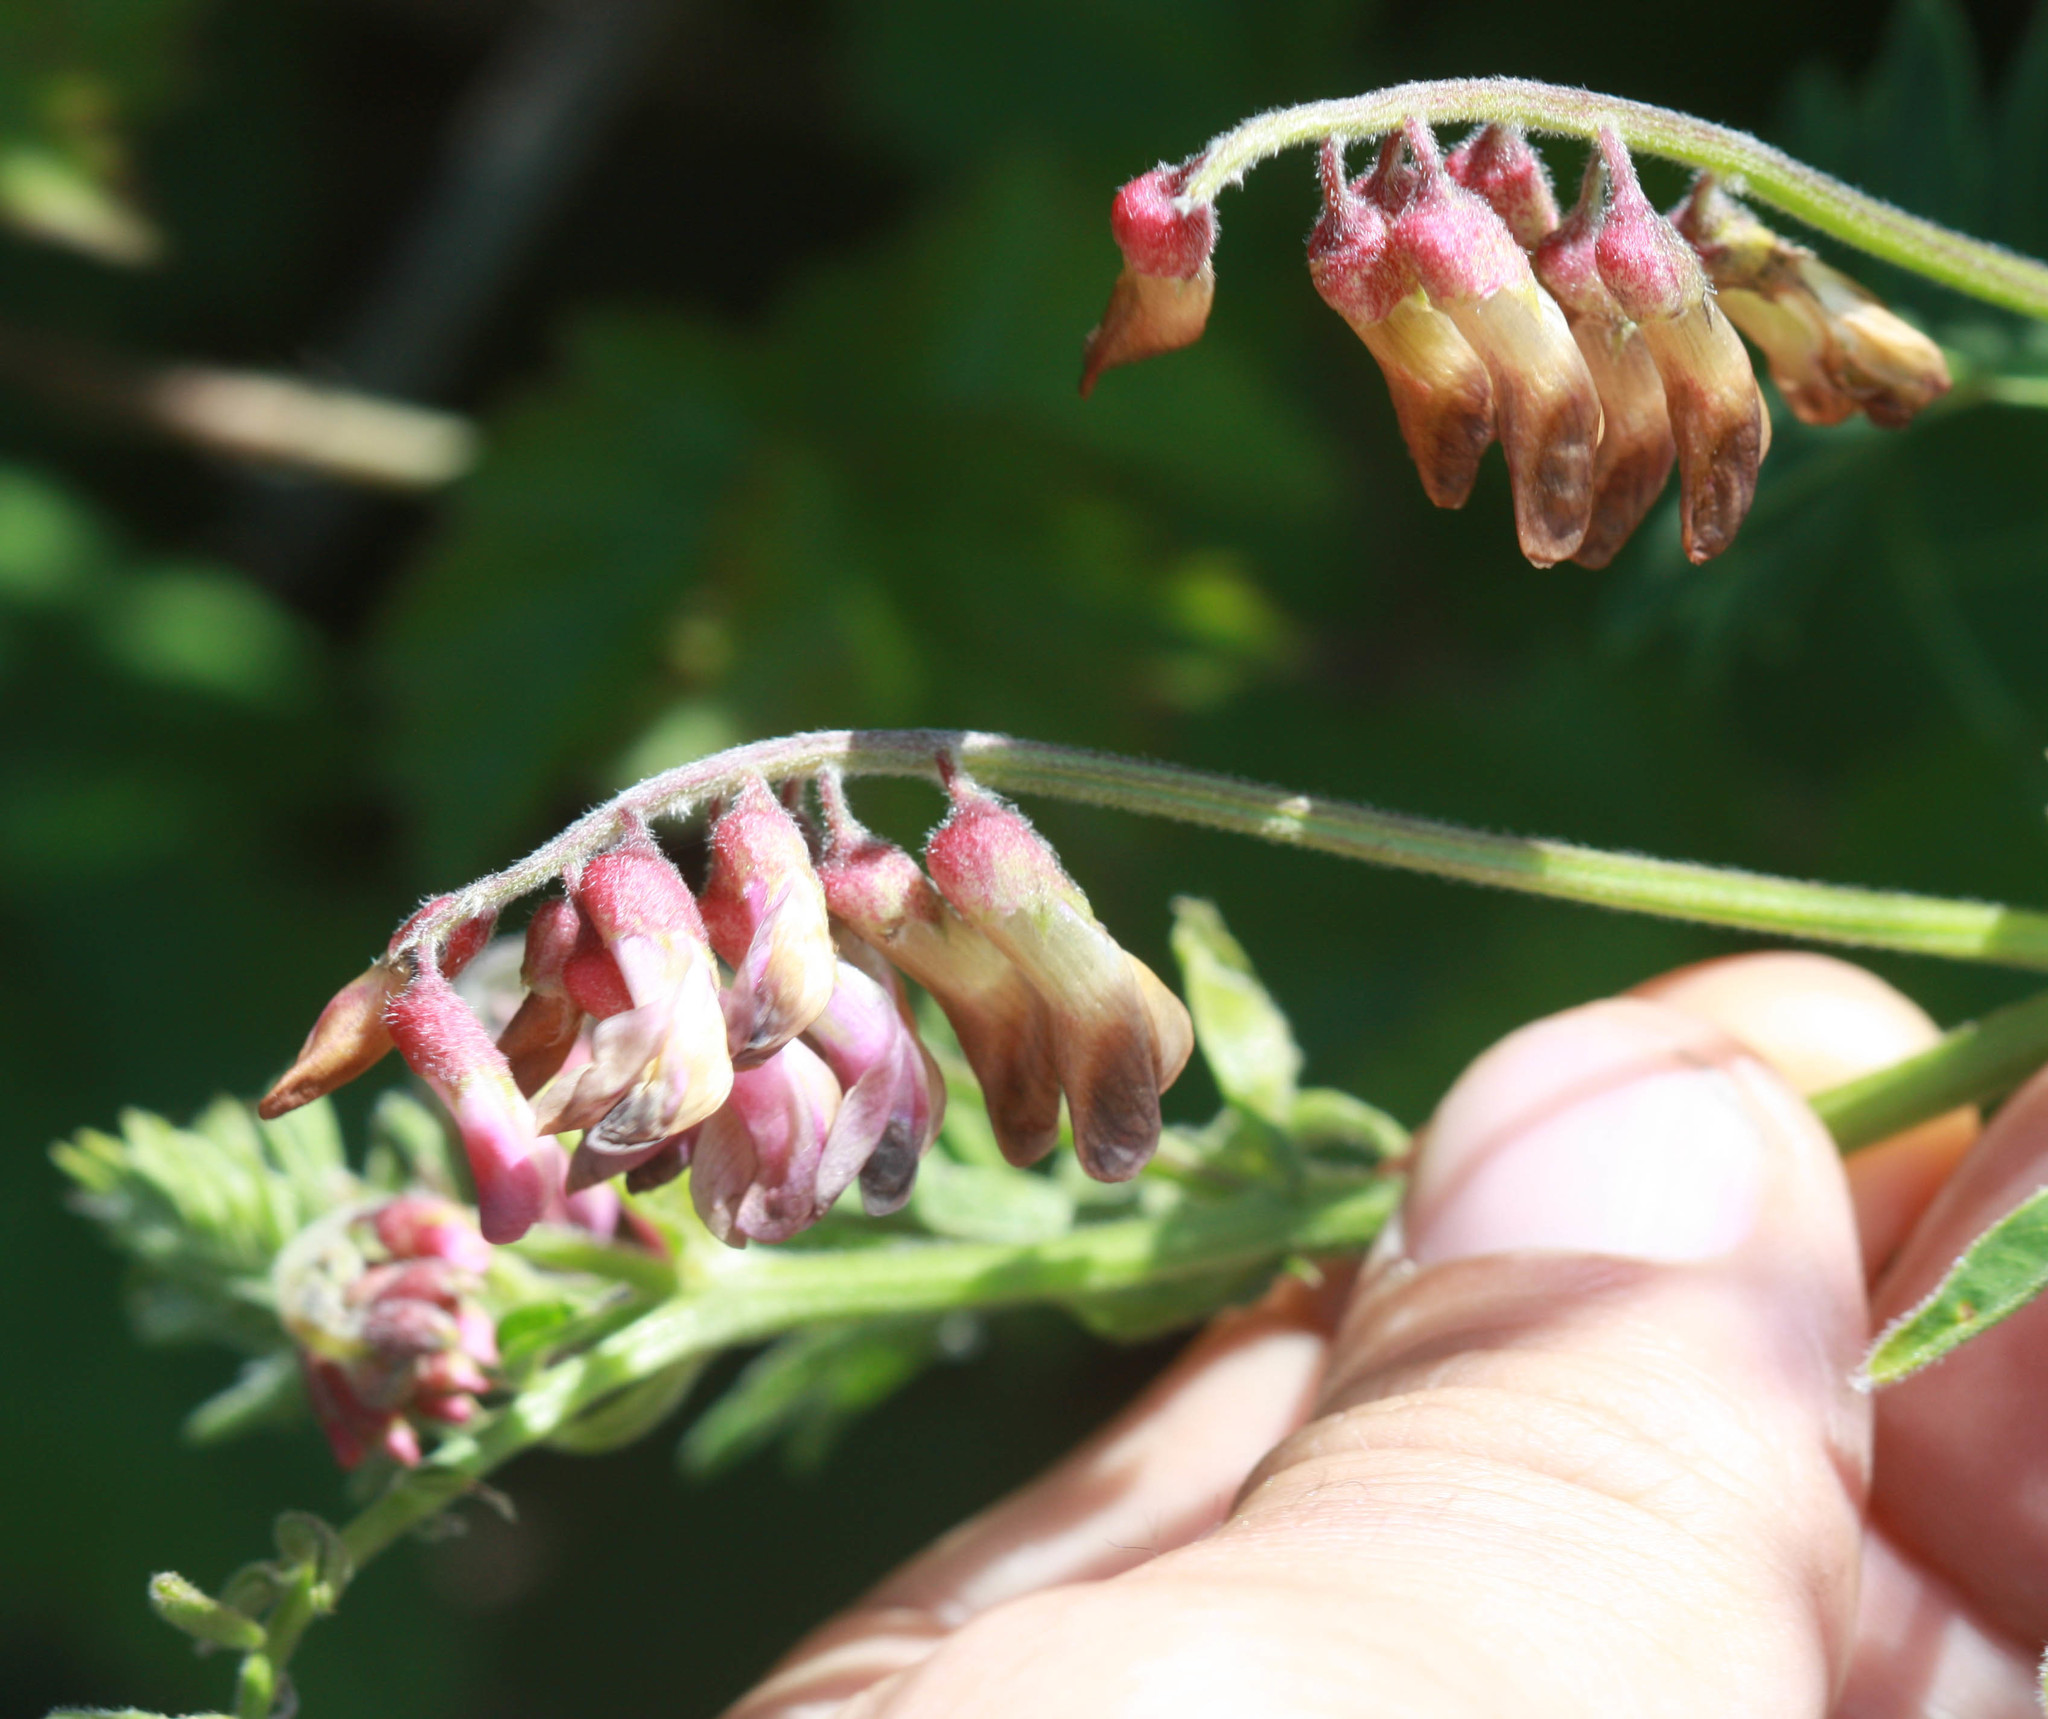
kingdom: Plantae
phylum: Tracheophyta
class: Magnoliopsida
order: Fabales
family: Fabaceae
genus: Vicia
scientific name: Vicia
